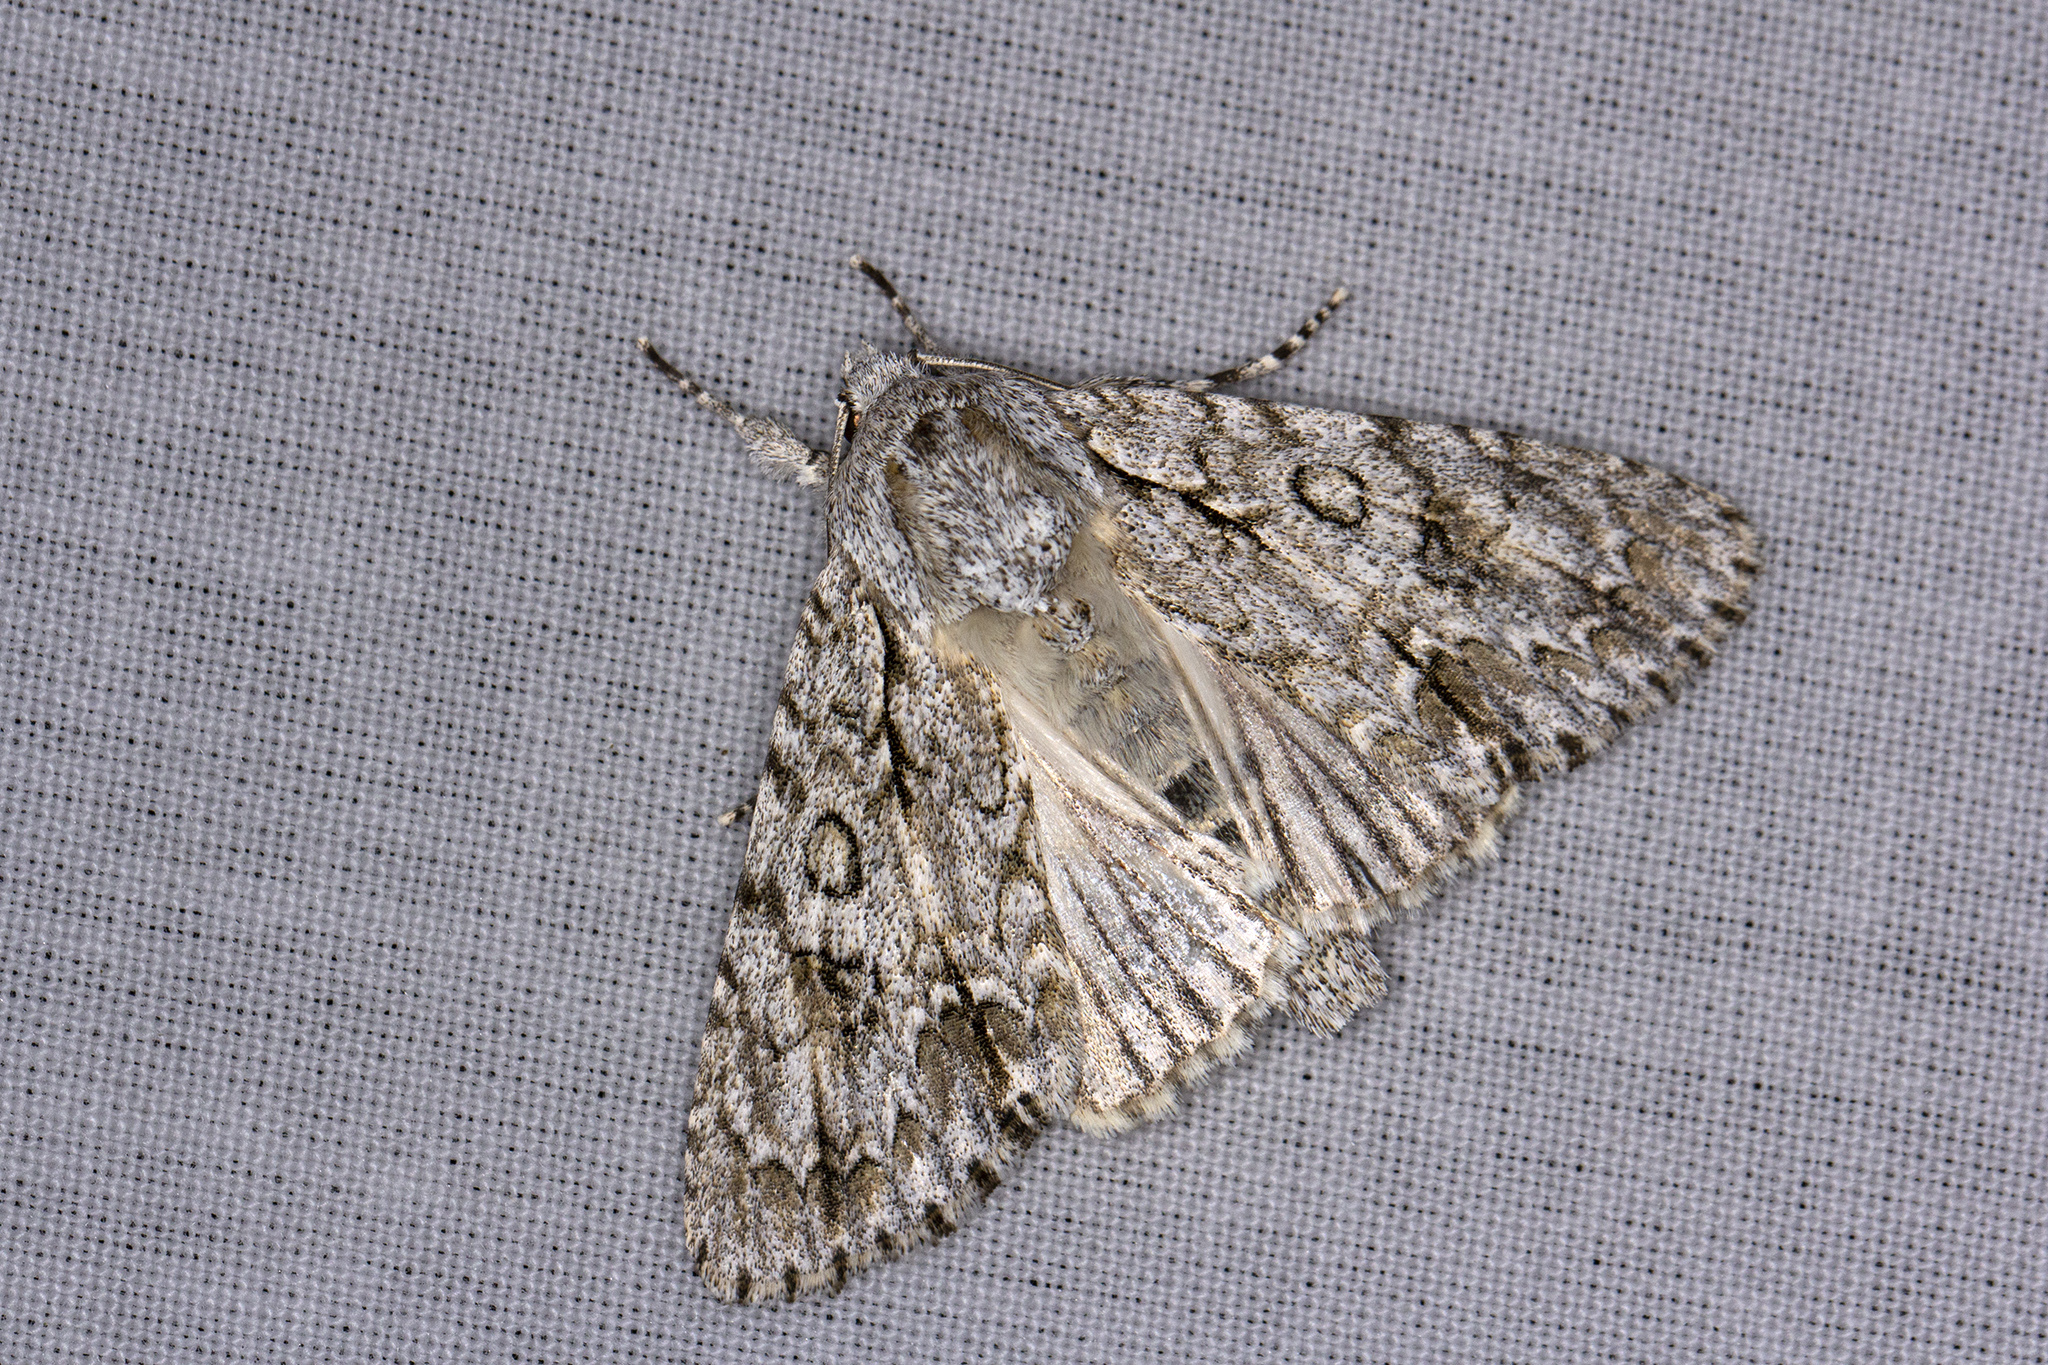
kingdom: Animalia
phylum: Arthropoda
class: Insecta
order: Lepidoptera
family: Noctuidae
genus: Acronicta
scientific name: Acronicta aceris
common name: Sycamore
